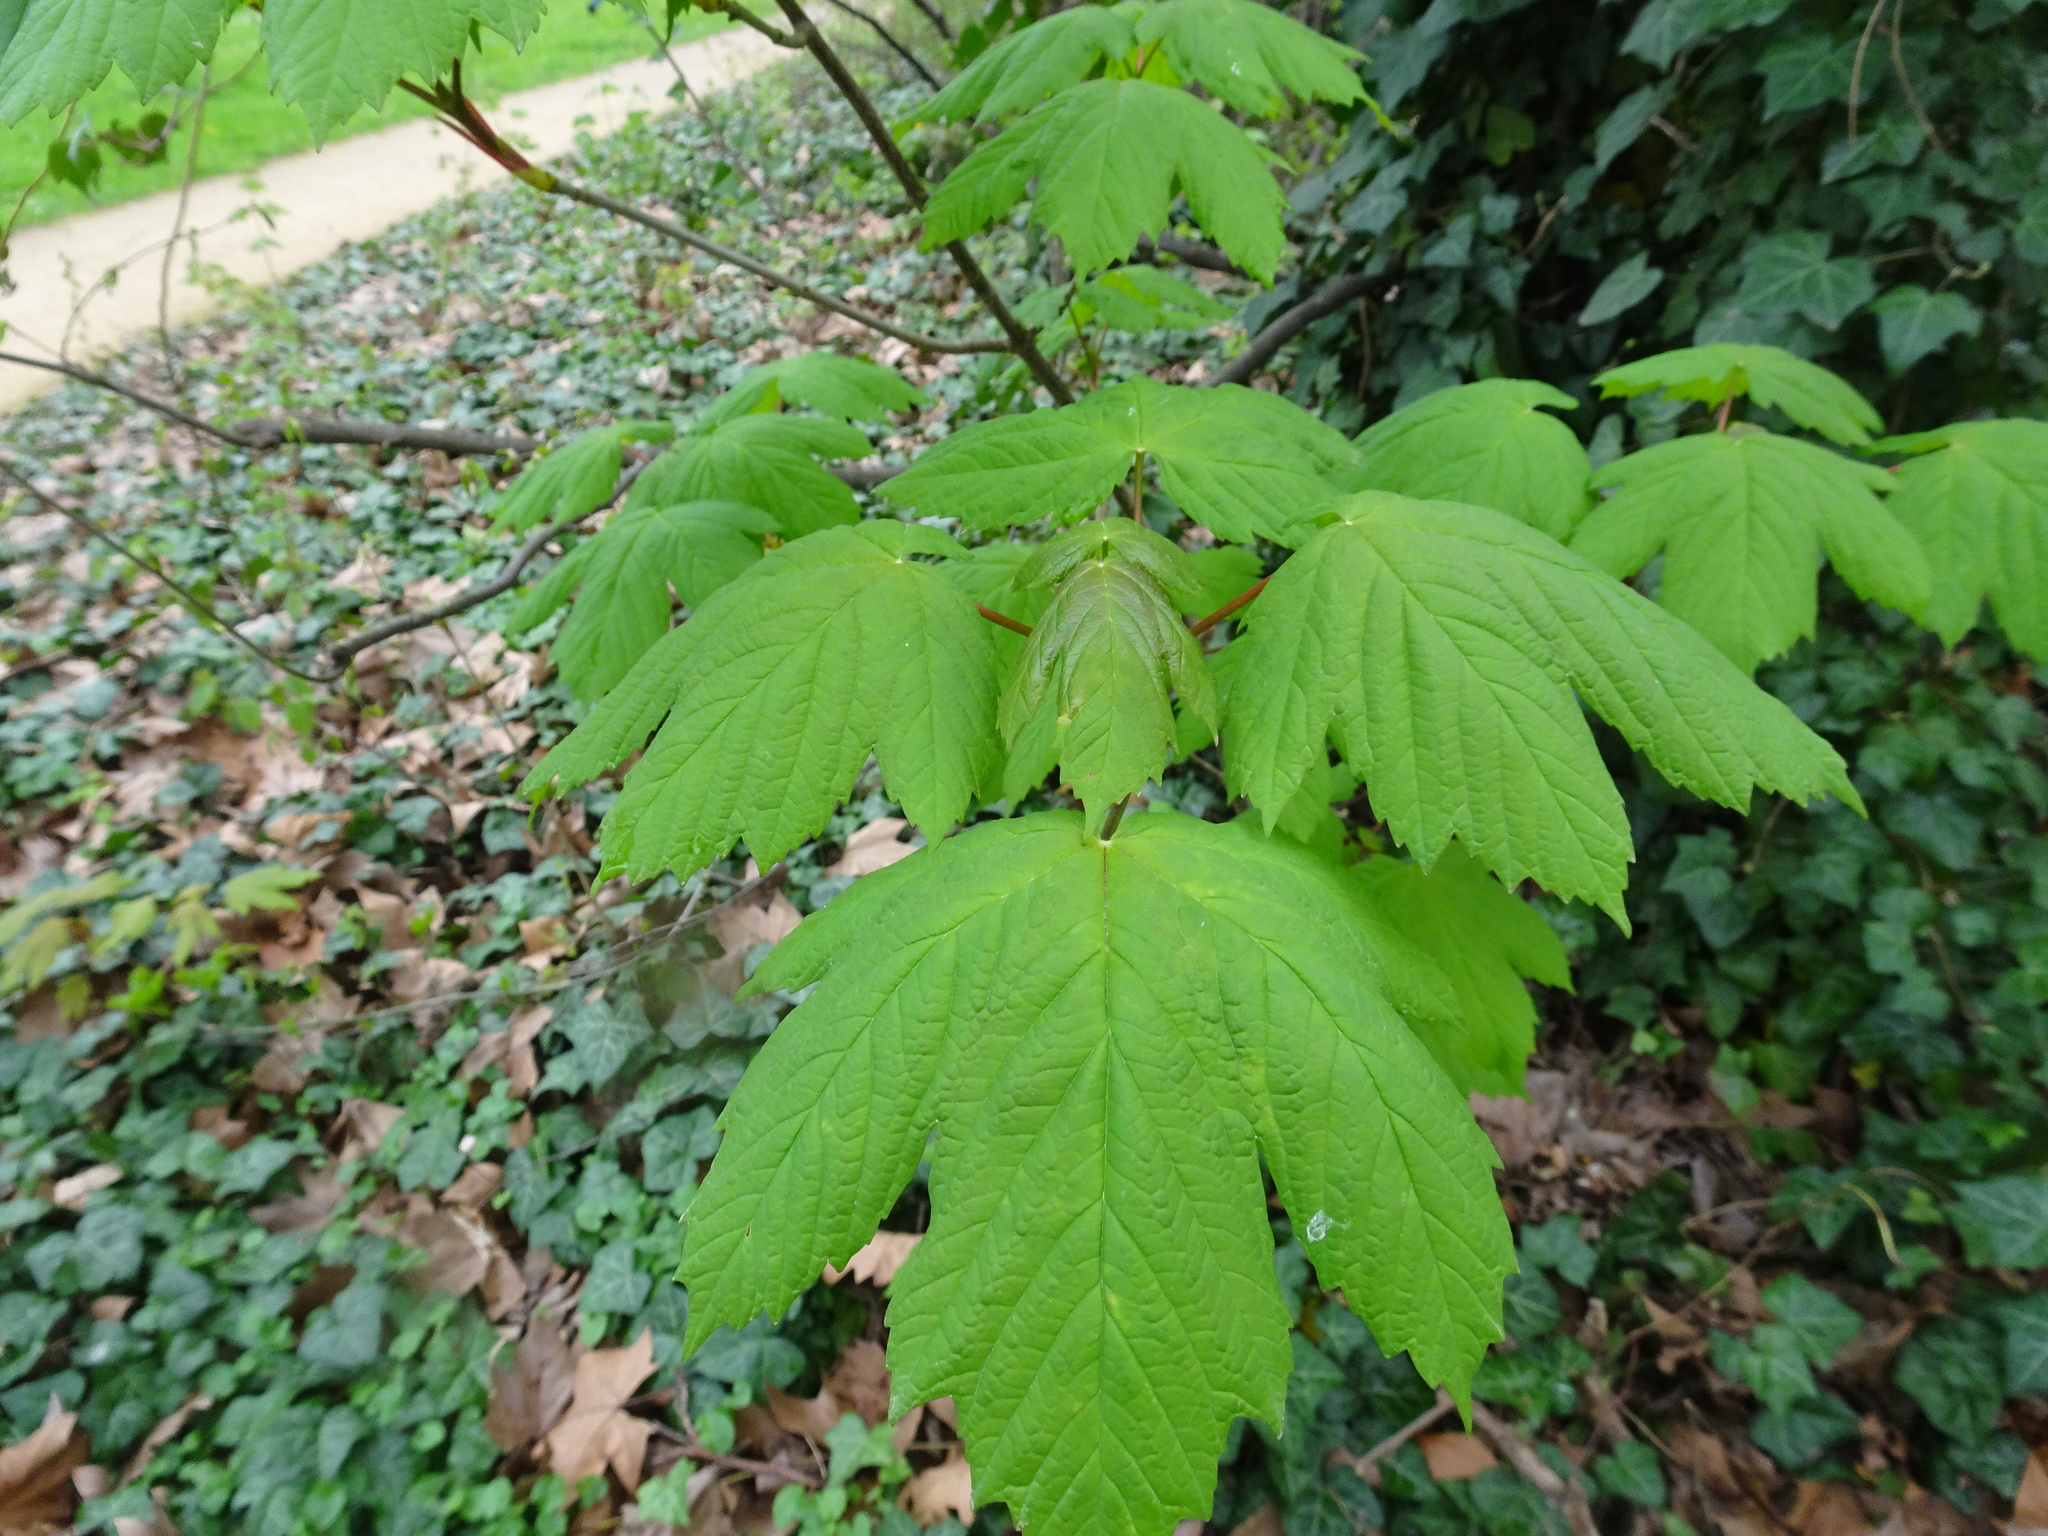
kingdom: Plantae
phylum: Tracheophyta
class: Magnoliopsida
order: Sapindales
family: Sapindaceae
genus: Acer
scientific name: Acer pseudoplatanus
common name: Sycamore
